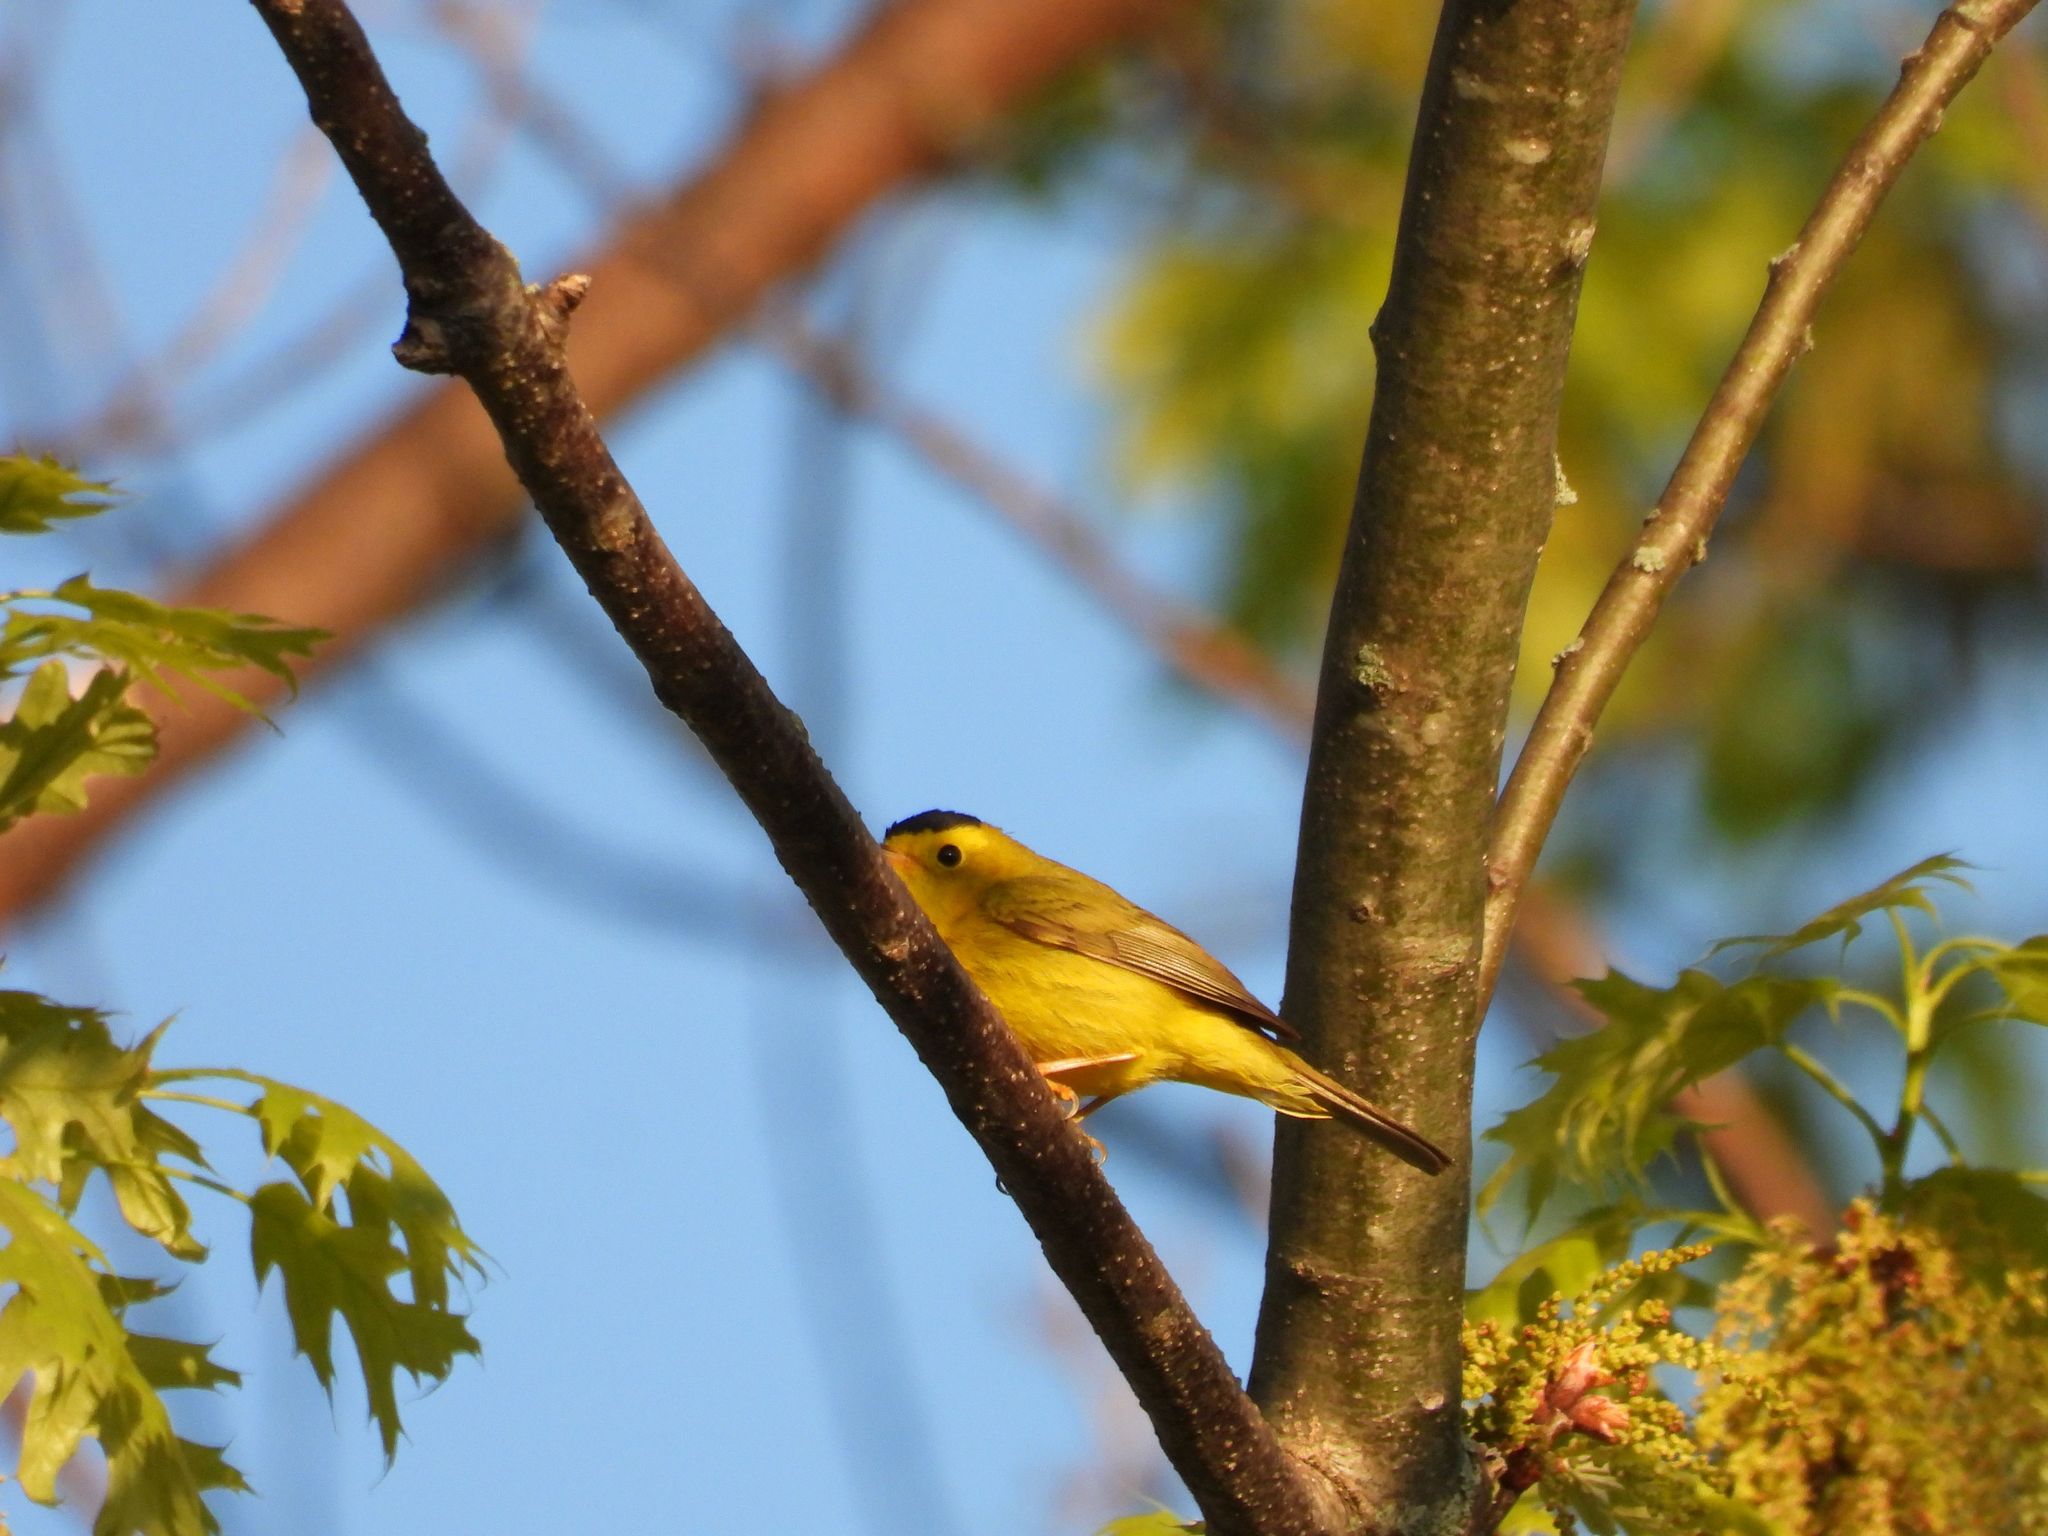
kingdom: Animalia
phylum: Chordata
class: Aves
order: Passeriformes
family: Parulidae
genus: Cardellina
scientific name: Cardellina pusilla
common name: Wilson's warbler
